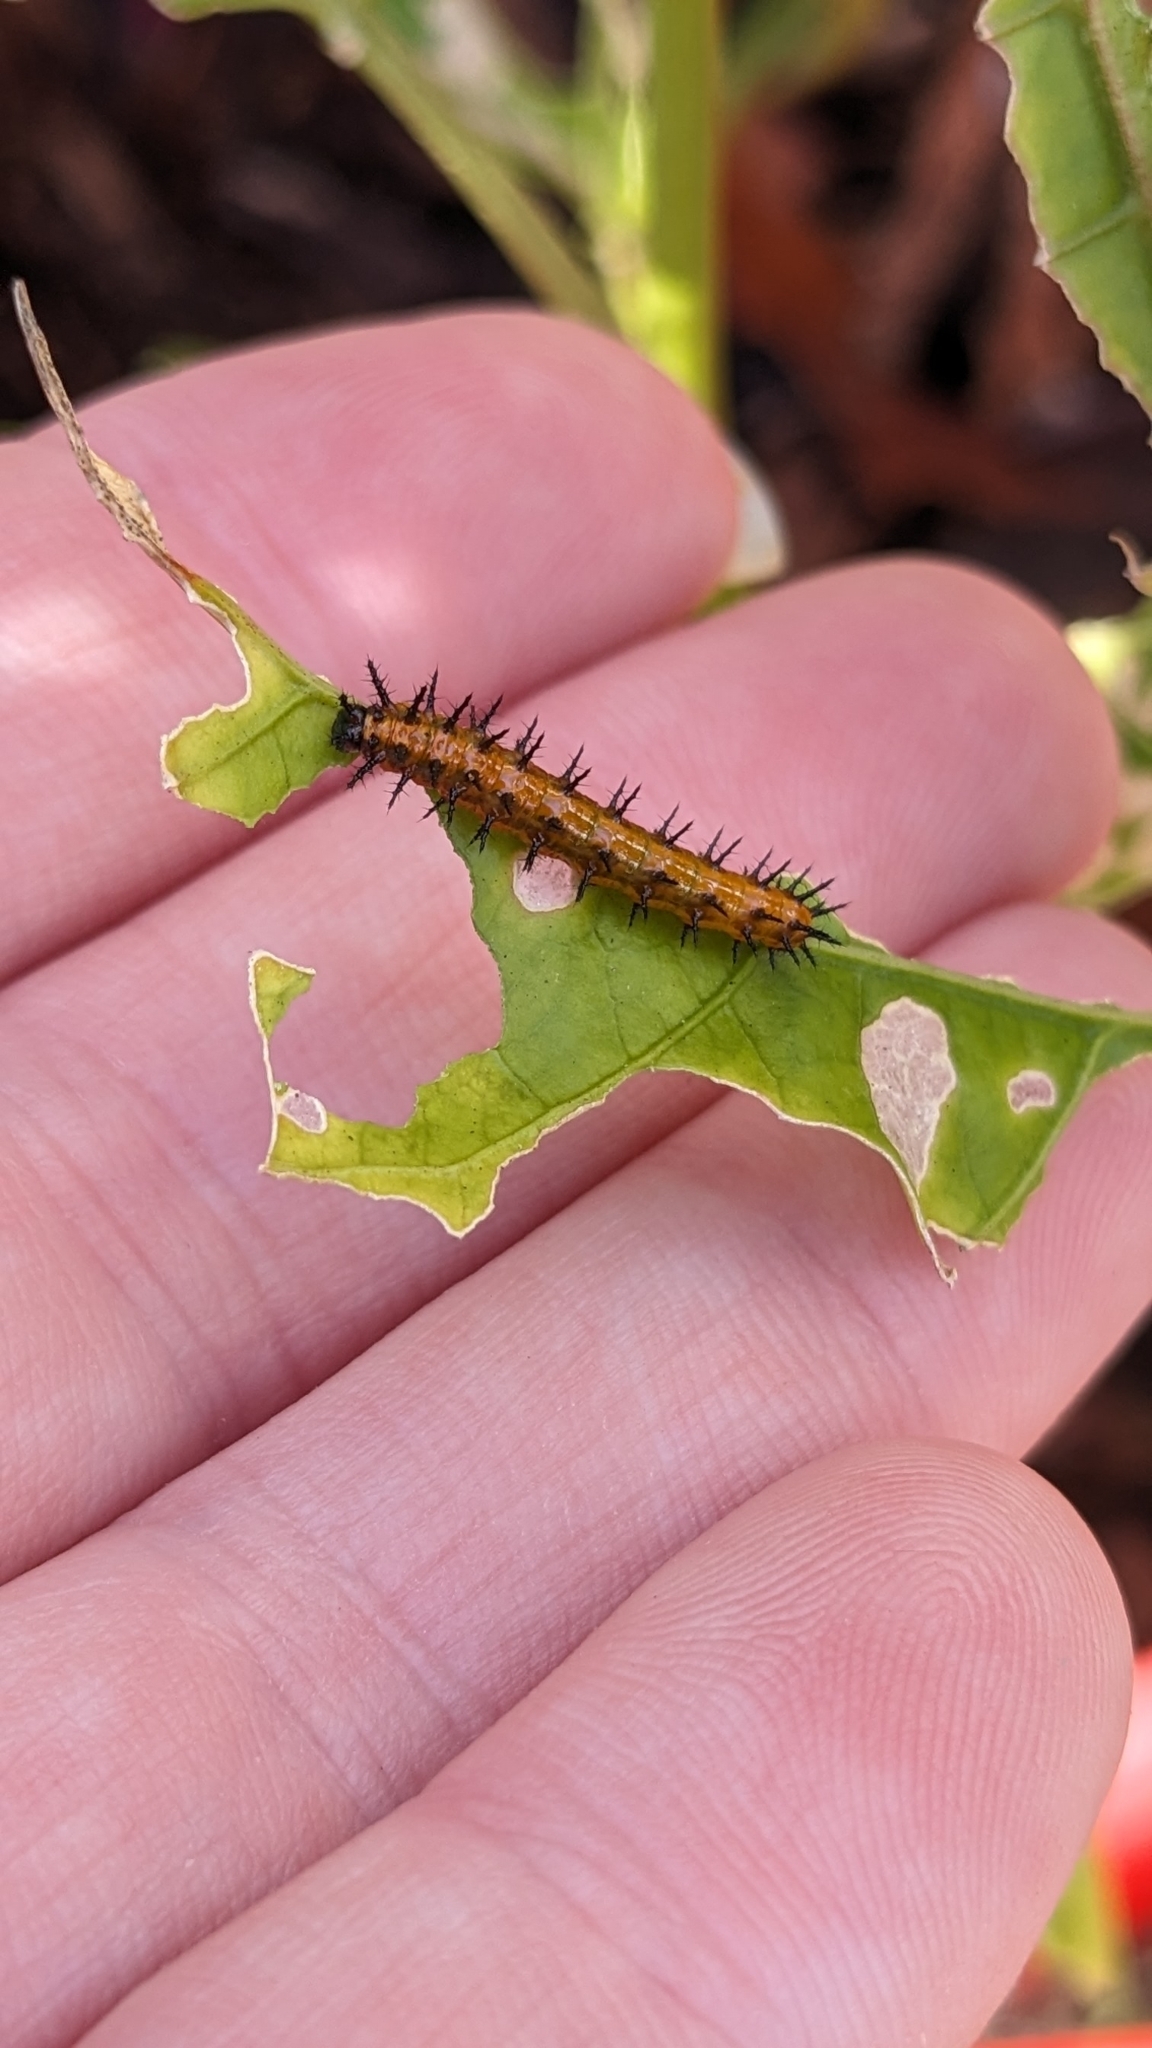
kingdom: Animalia
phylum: Arthropoda
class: Insecta
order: Lepidoptera
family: Nymphalidae
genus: Dione
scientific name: Dione vanillae
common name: Gulf fritillary
